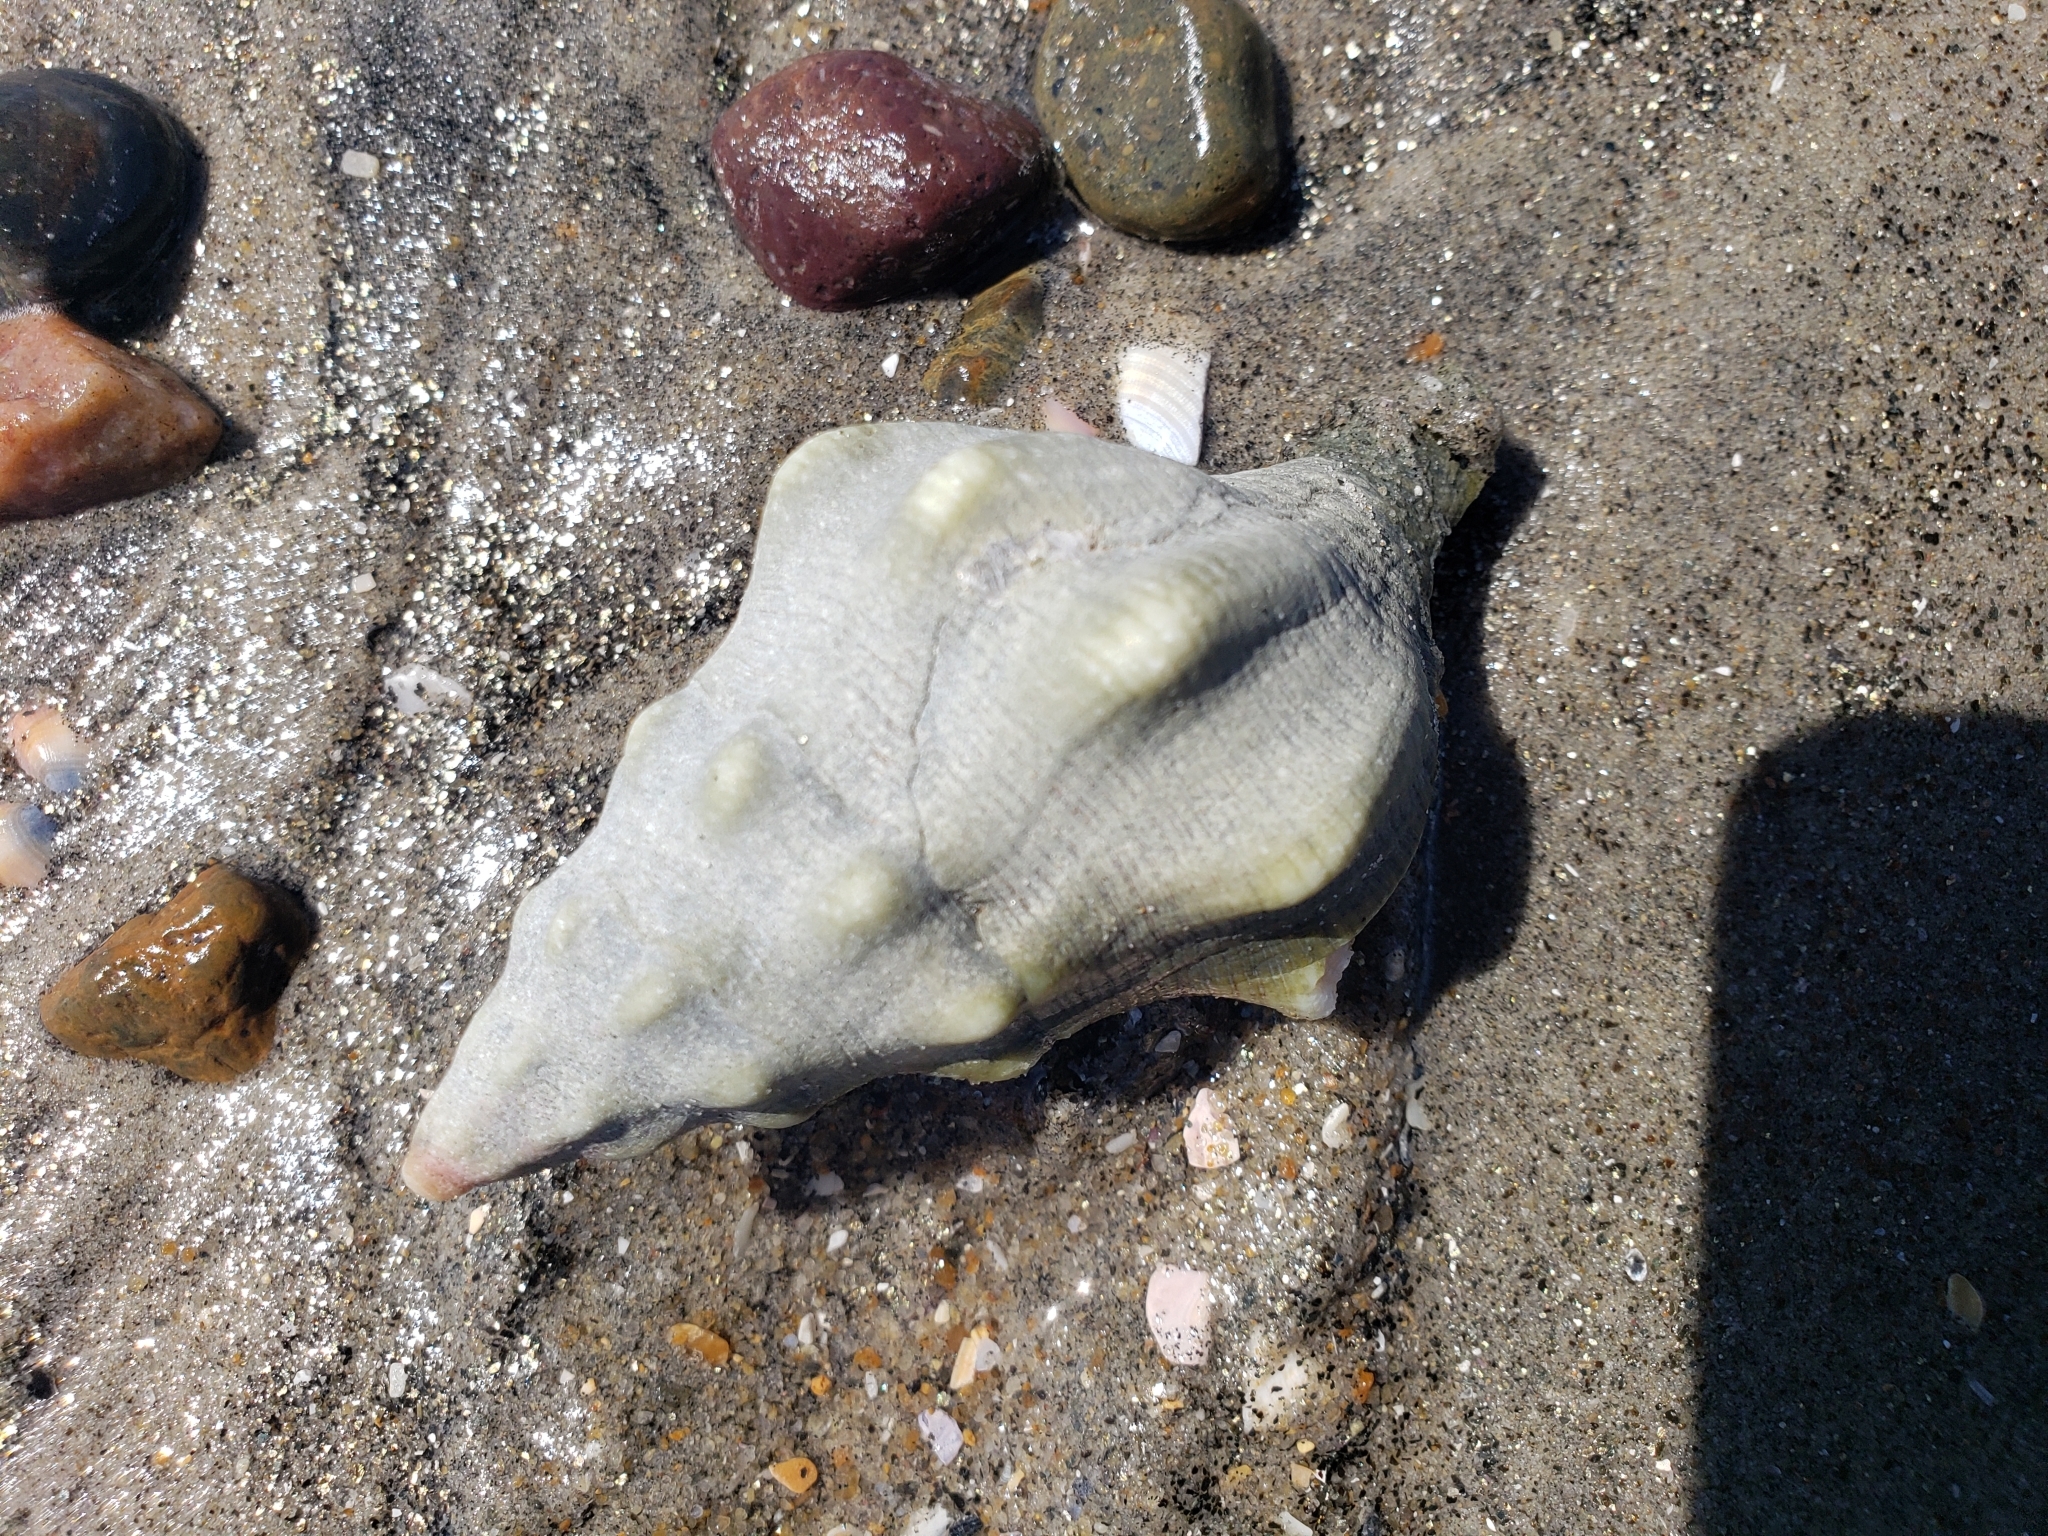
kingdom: Animalia
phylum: Mollusca
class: Gastropoda
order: Neogastropoda
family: Austrosiphonidae
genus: Kelletia
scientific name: Kelletia kelletii
